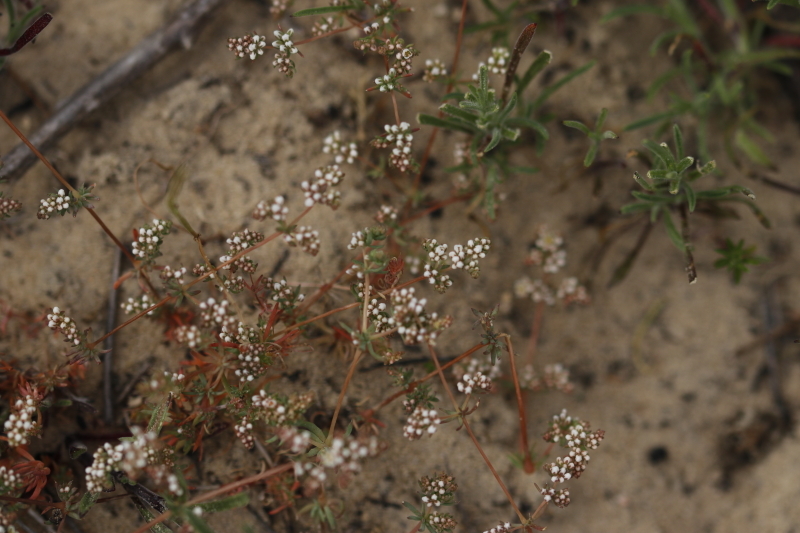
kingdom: Plantae
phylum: Tracheophyta
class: Magnoliopsida
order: Caryophyllales
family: Molluginaceae
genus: Adenogramma
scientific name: Adenogramma glomerata
